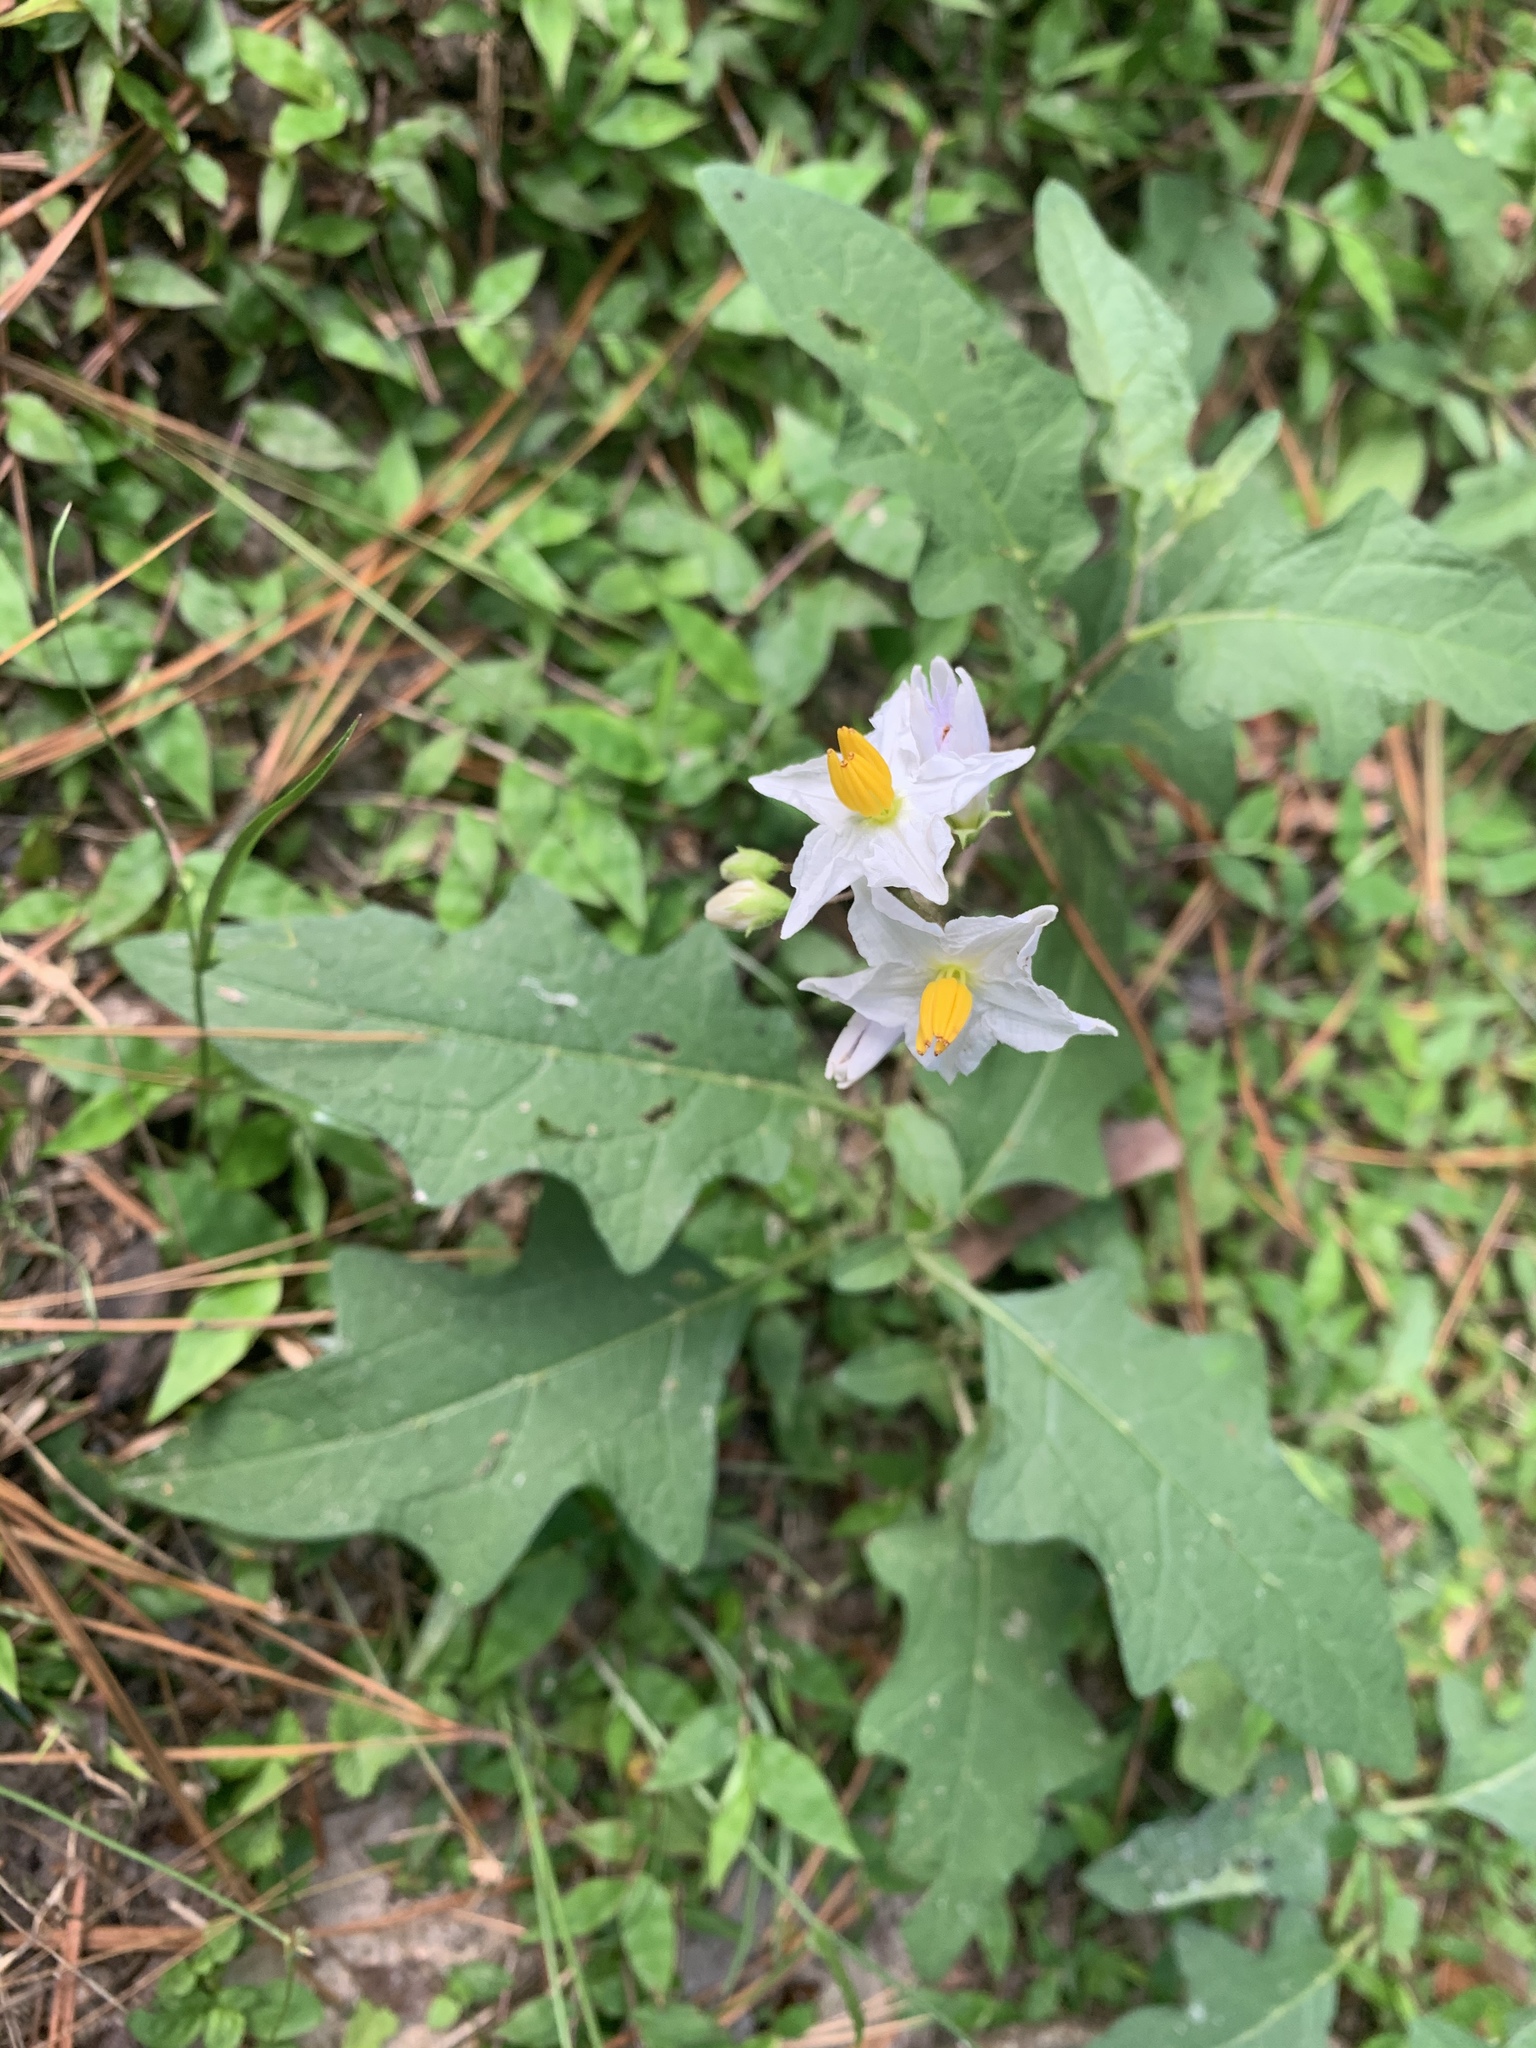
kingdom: Plantae
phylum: Tracheophyta
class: Magnoliopsida
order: Solanales
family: Solanaceae
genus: Solanum
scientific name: Solanum carolinense
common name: Horse-nettle
